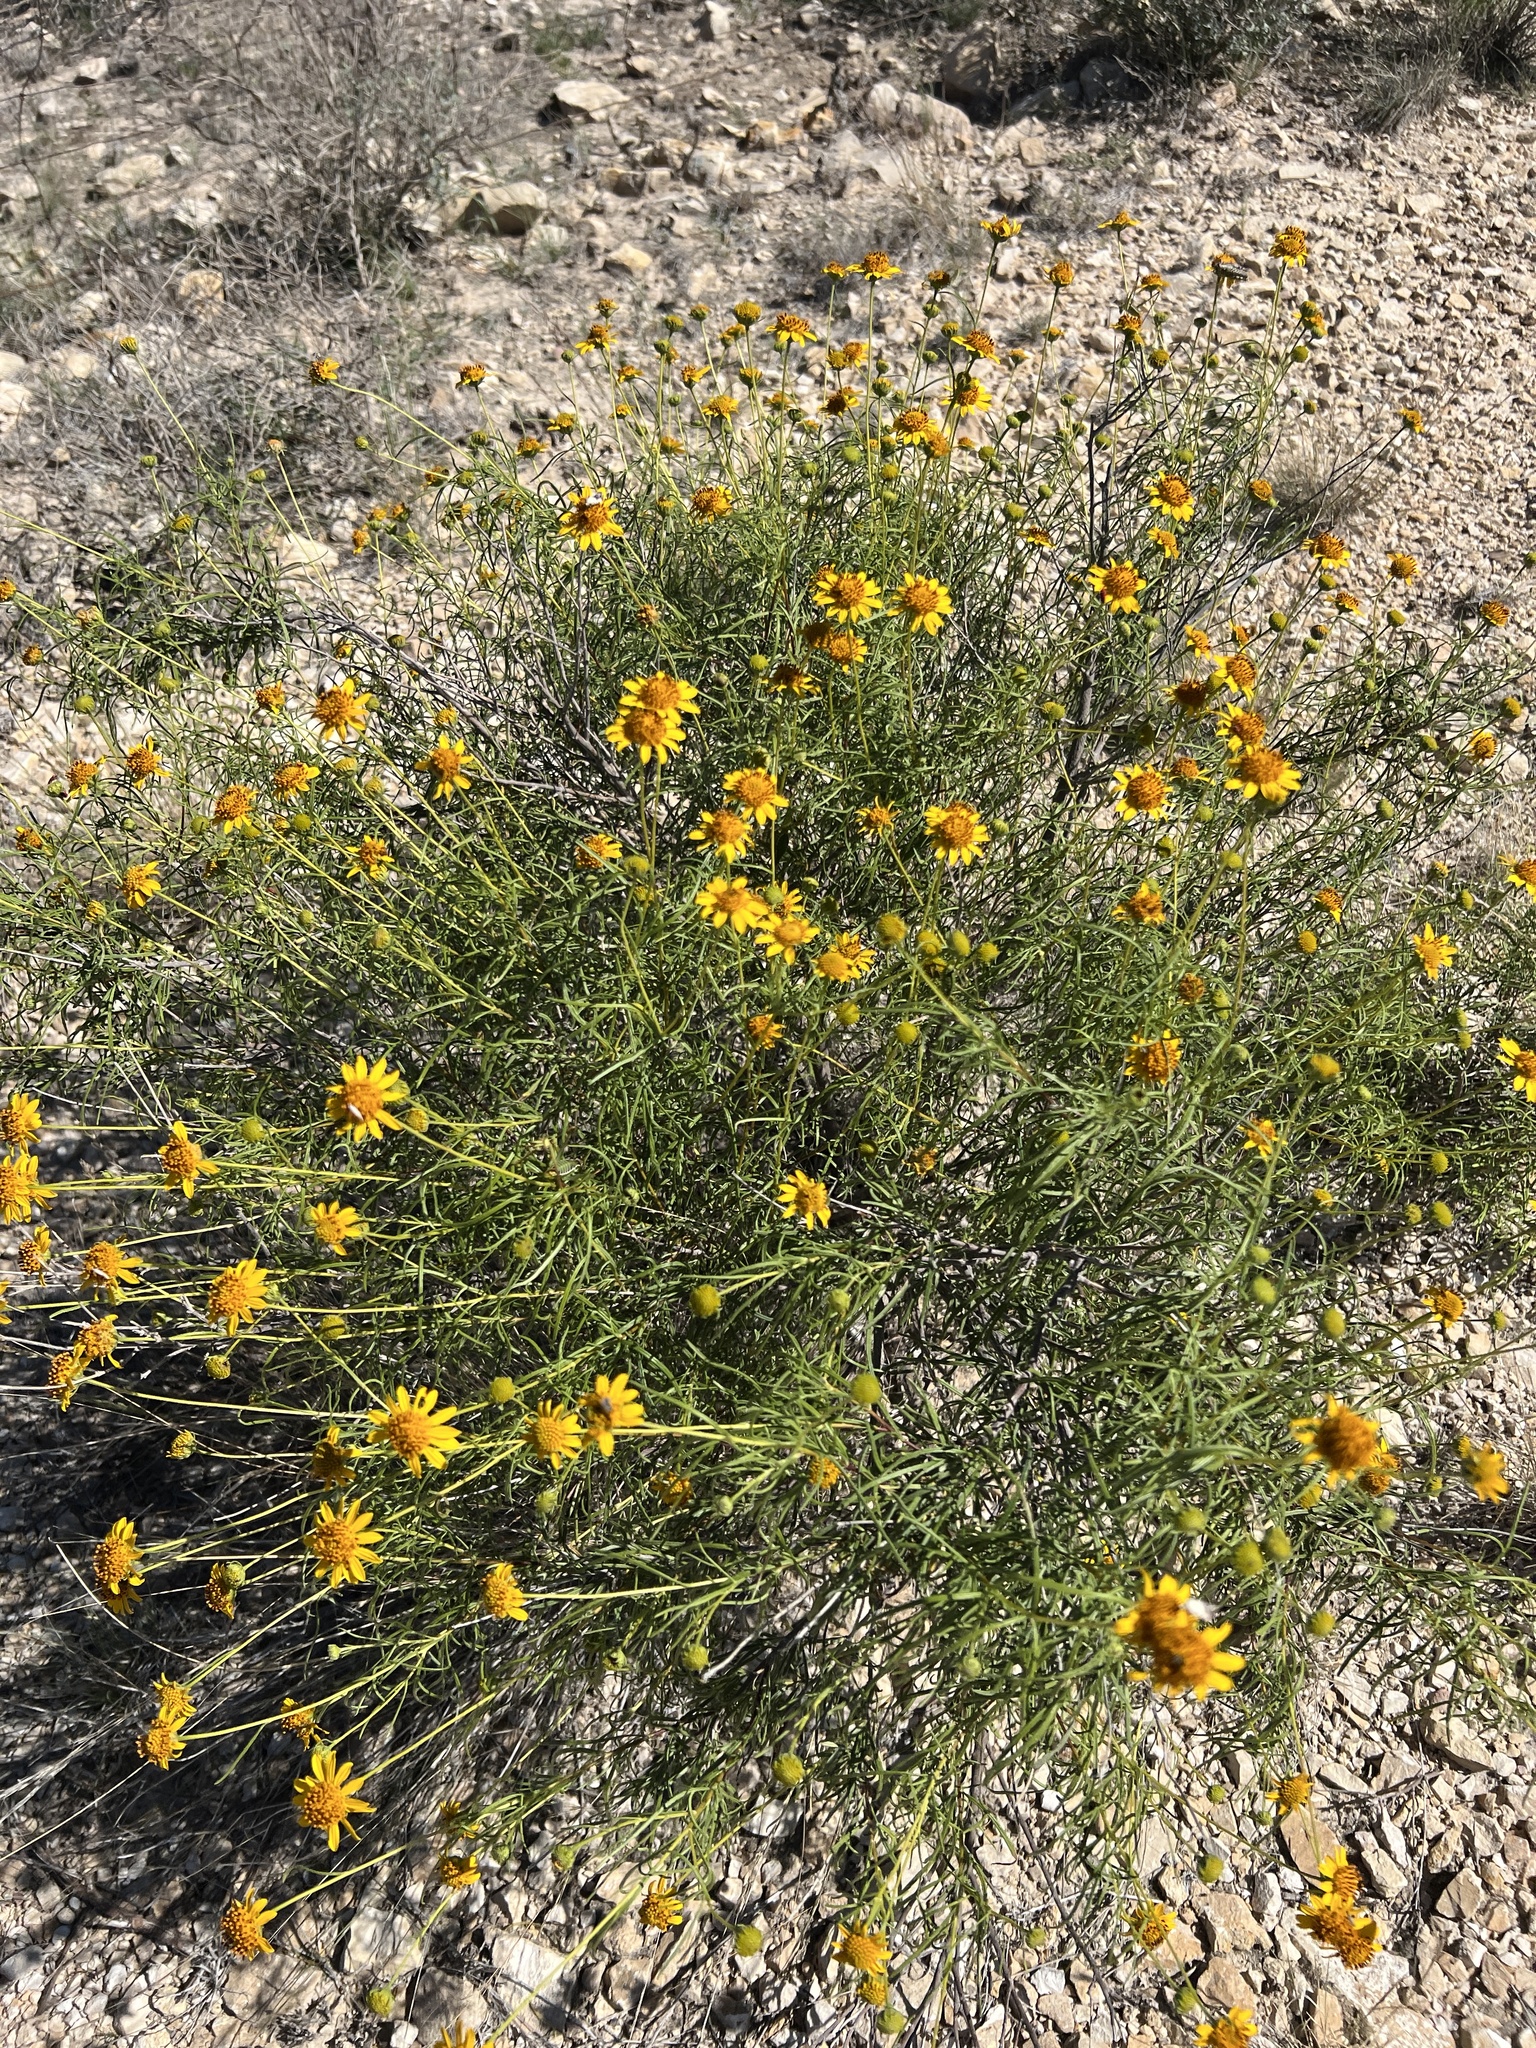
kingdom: Plantae
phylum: Tracheophyta
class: Magnoliopsida
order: Asterales
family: Asteraceae
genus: Sidneya
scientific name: Sidneya tenuifolia
